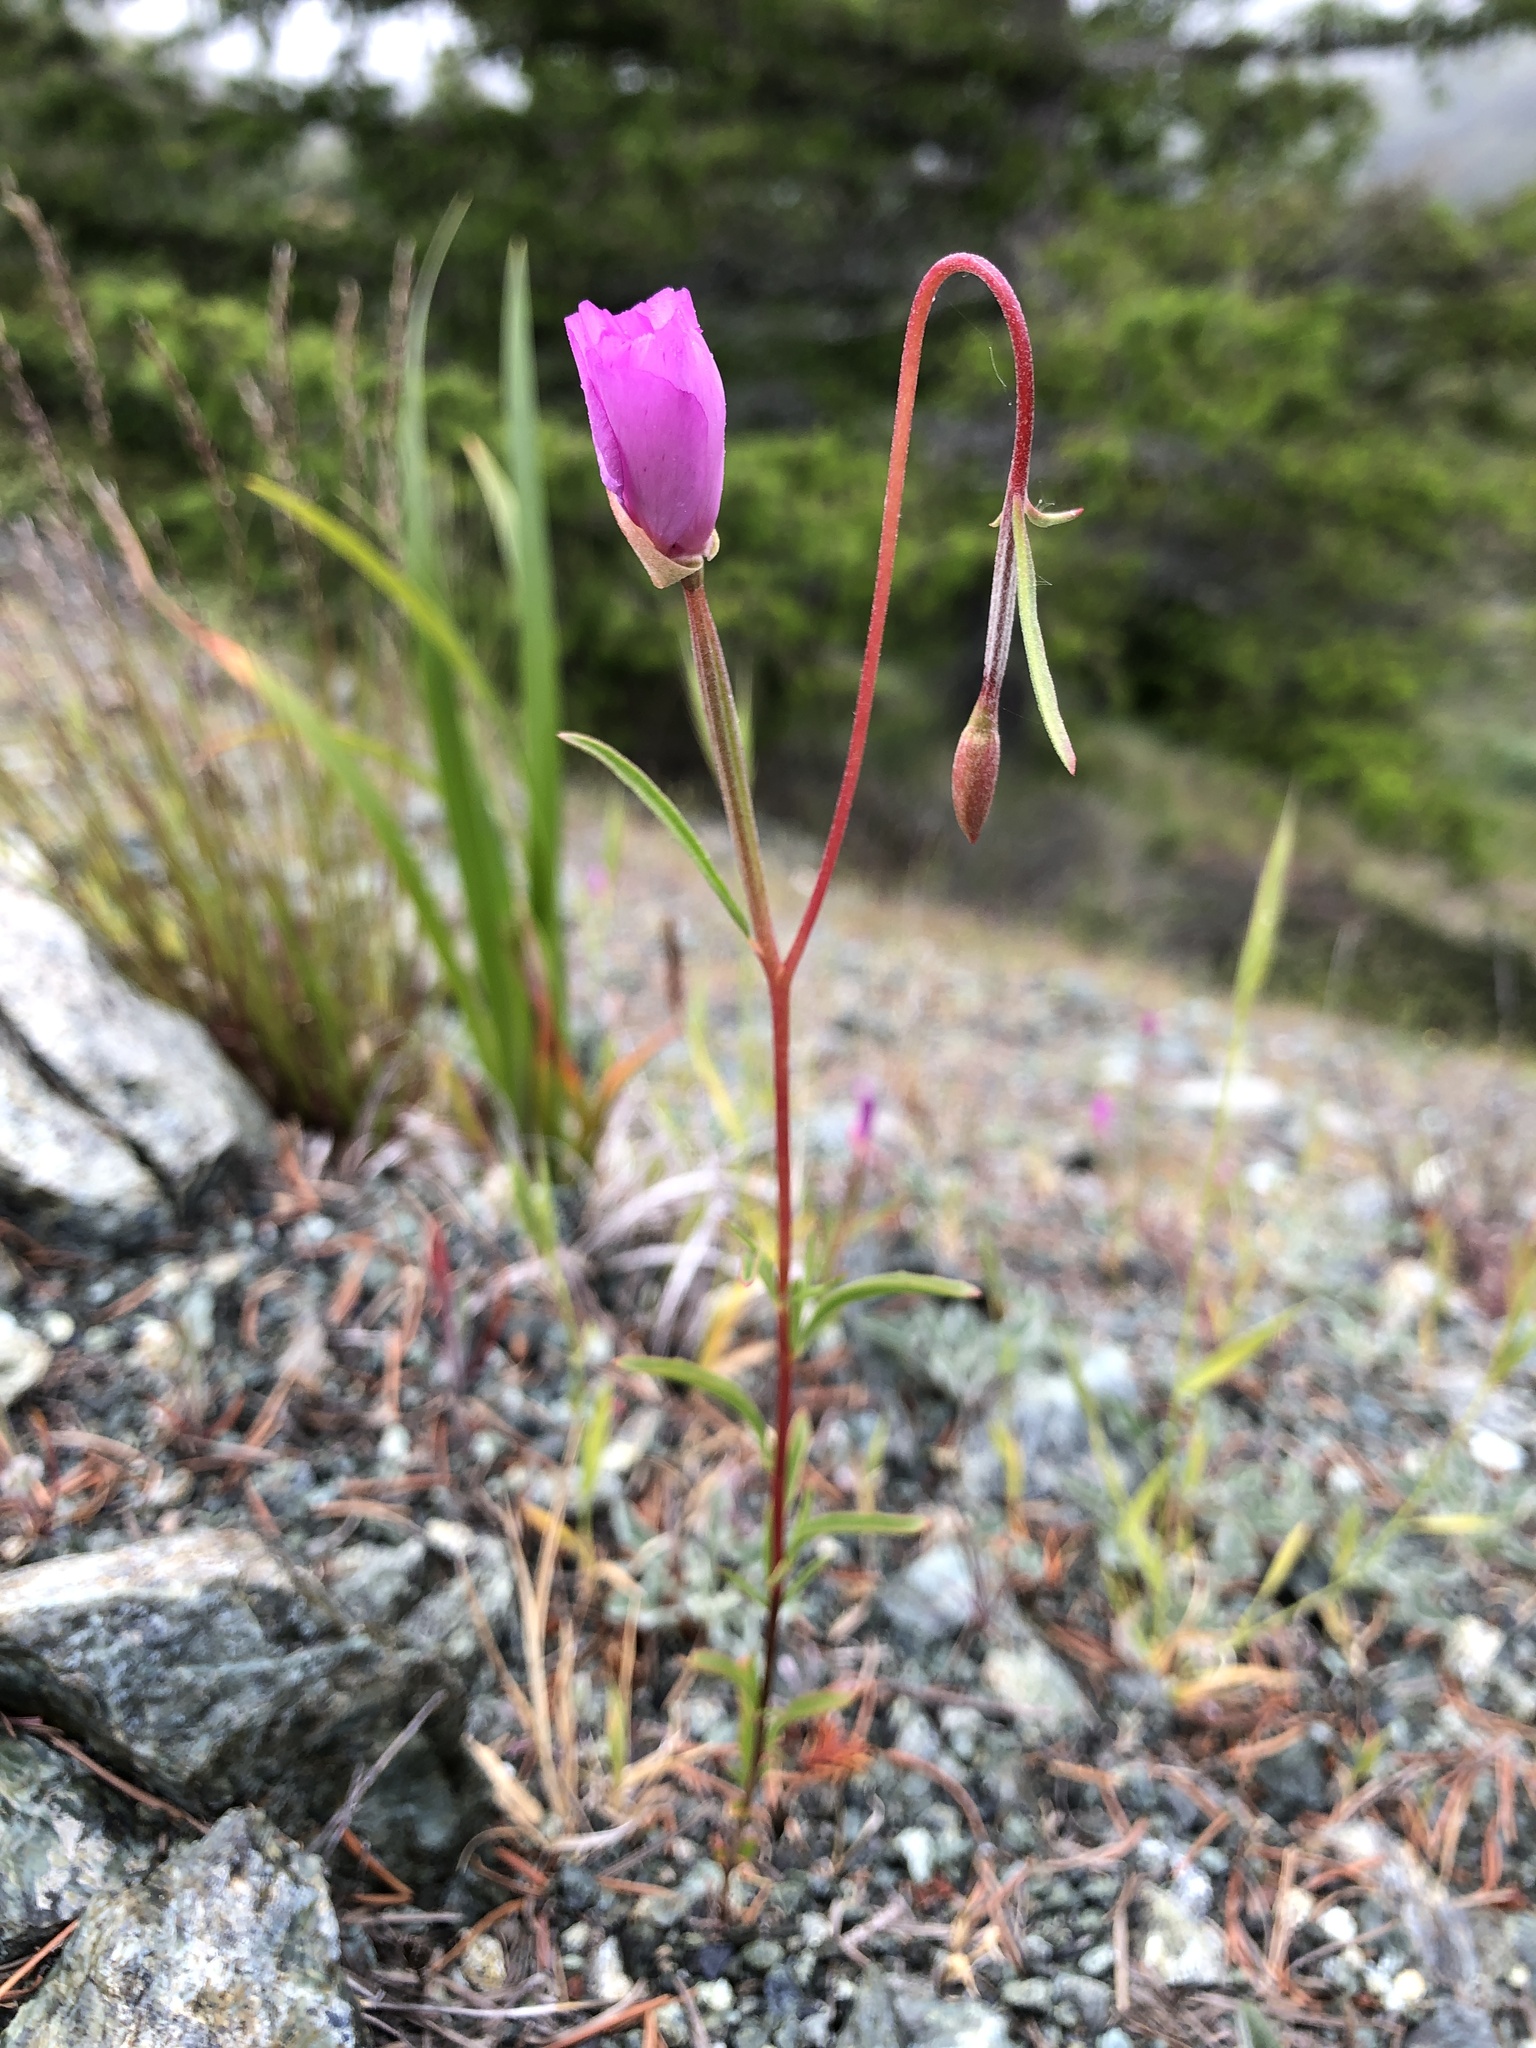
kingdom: Plantae
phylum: Tracheophyta
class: Magnoliopsida
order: Myrtales
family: Onagraceae
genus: Clarkia
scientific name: Clarkia gracilis
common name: Graceful clarkia
